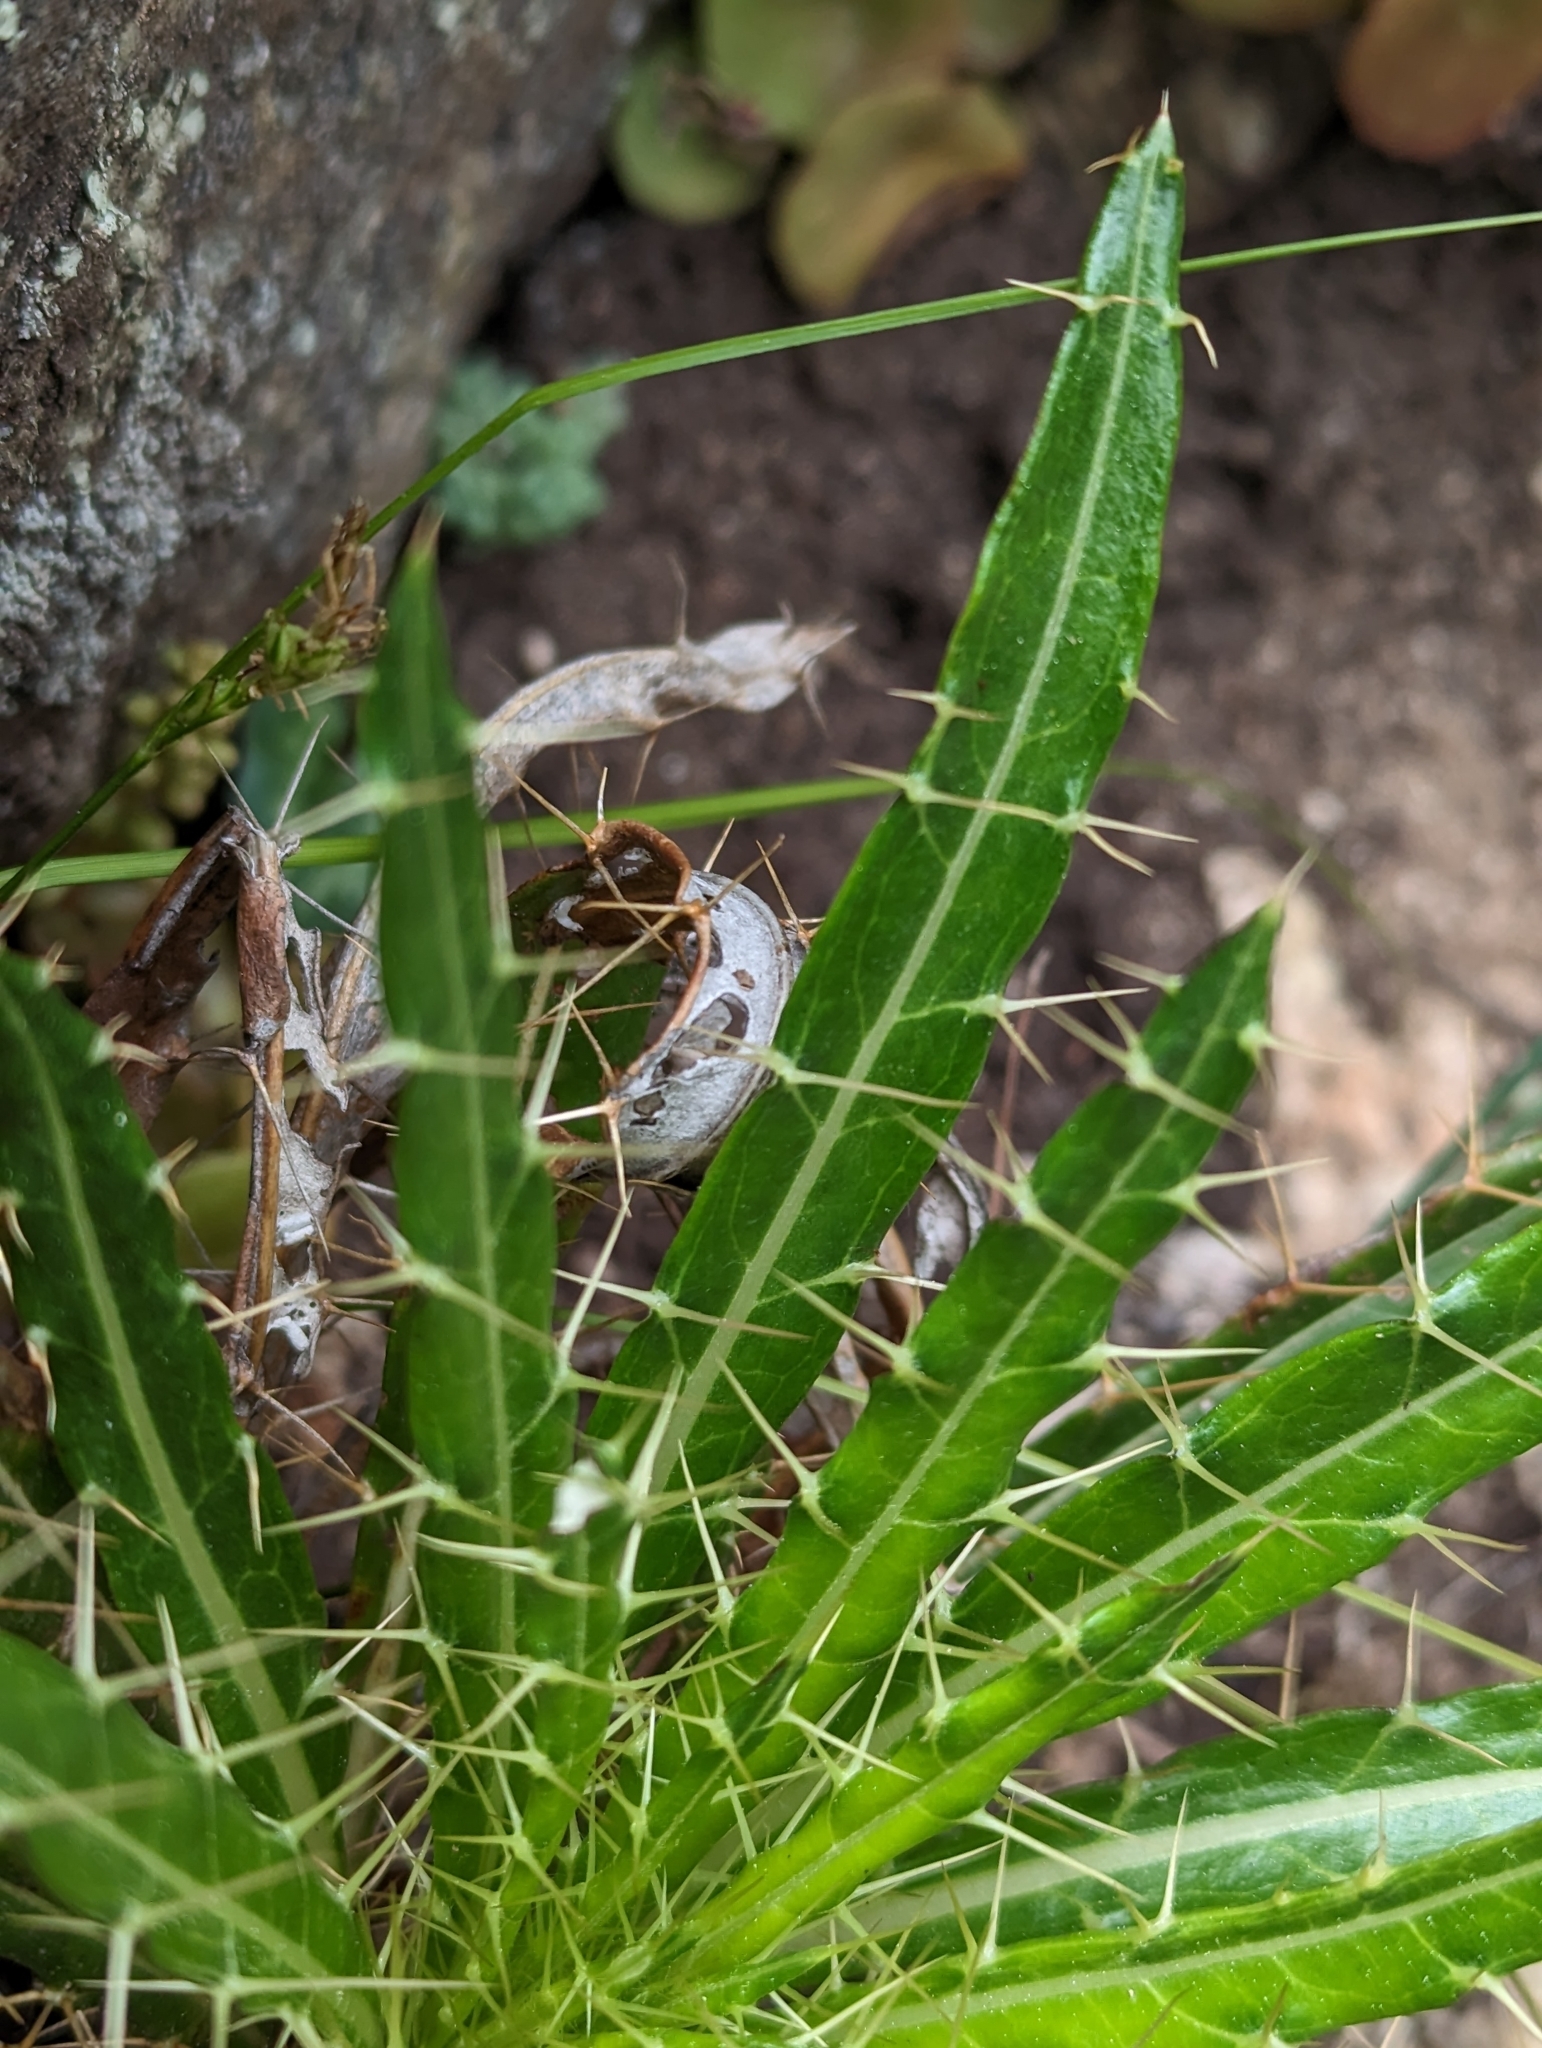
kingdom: Plantae
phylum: Tracheophyta
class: Magnoliopsida
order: Asterales
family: Asteraceae
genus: Ptilostemon
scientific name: Ptilostemon casabonae
